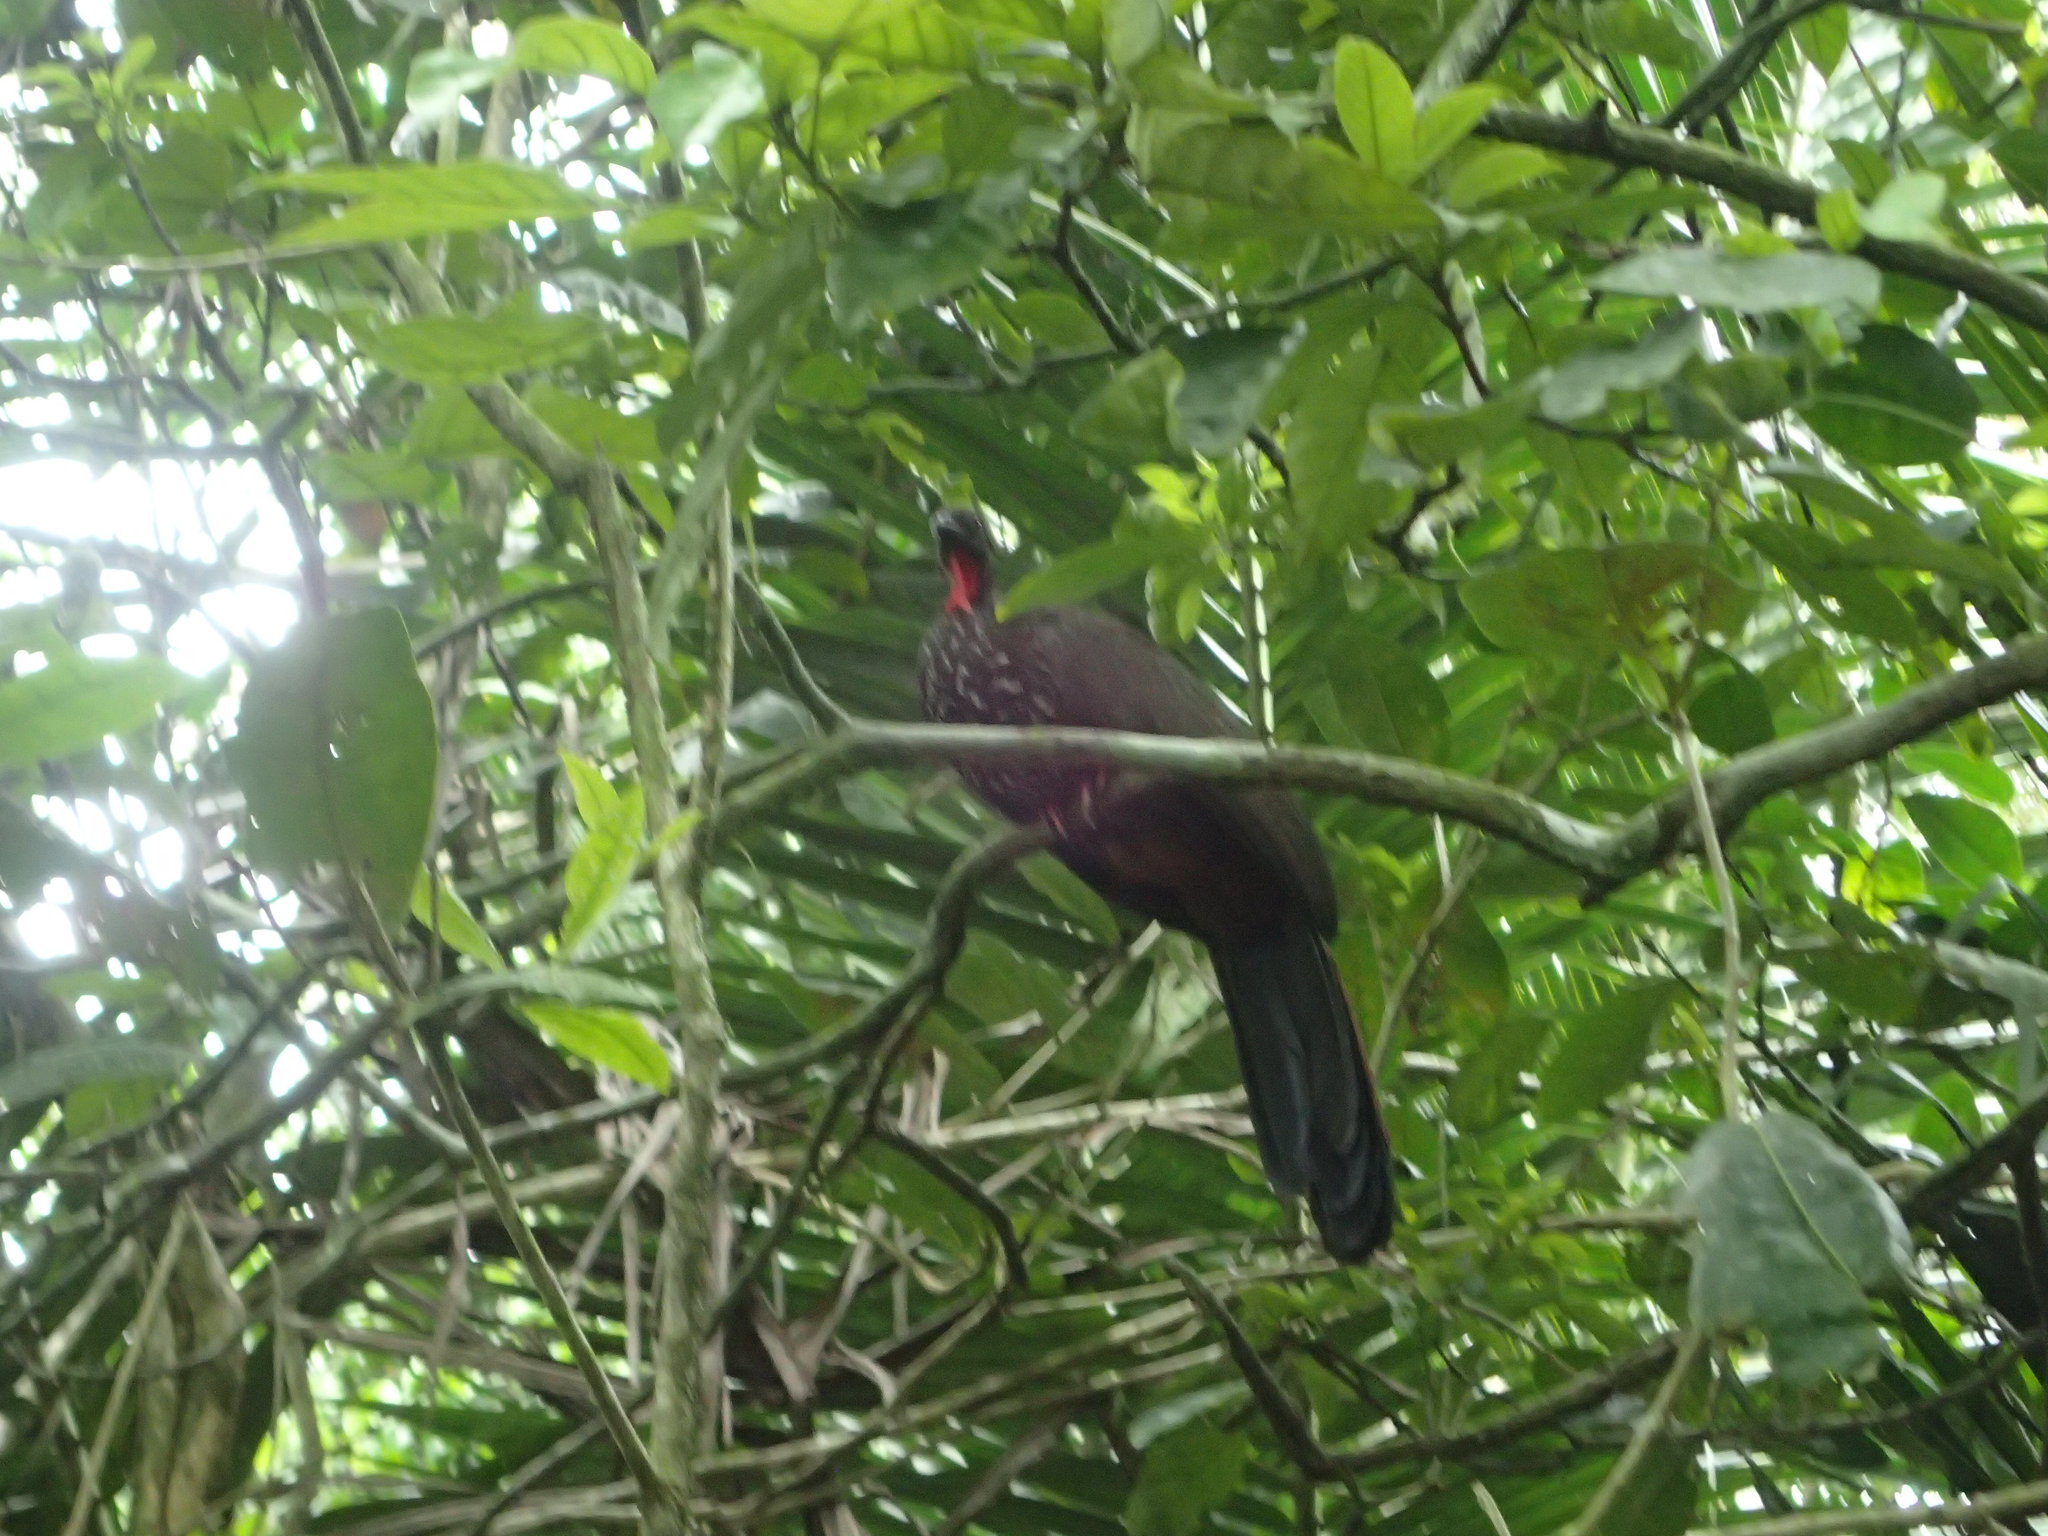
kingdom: Animalia
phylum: Chordata
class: Aves
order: Galliformes
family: Cracidae
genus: Penelope
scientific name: Penelope purpurascens
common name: Crested guan
